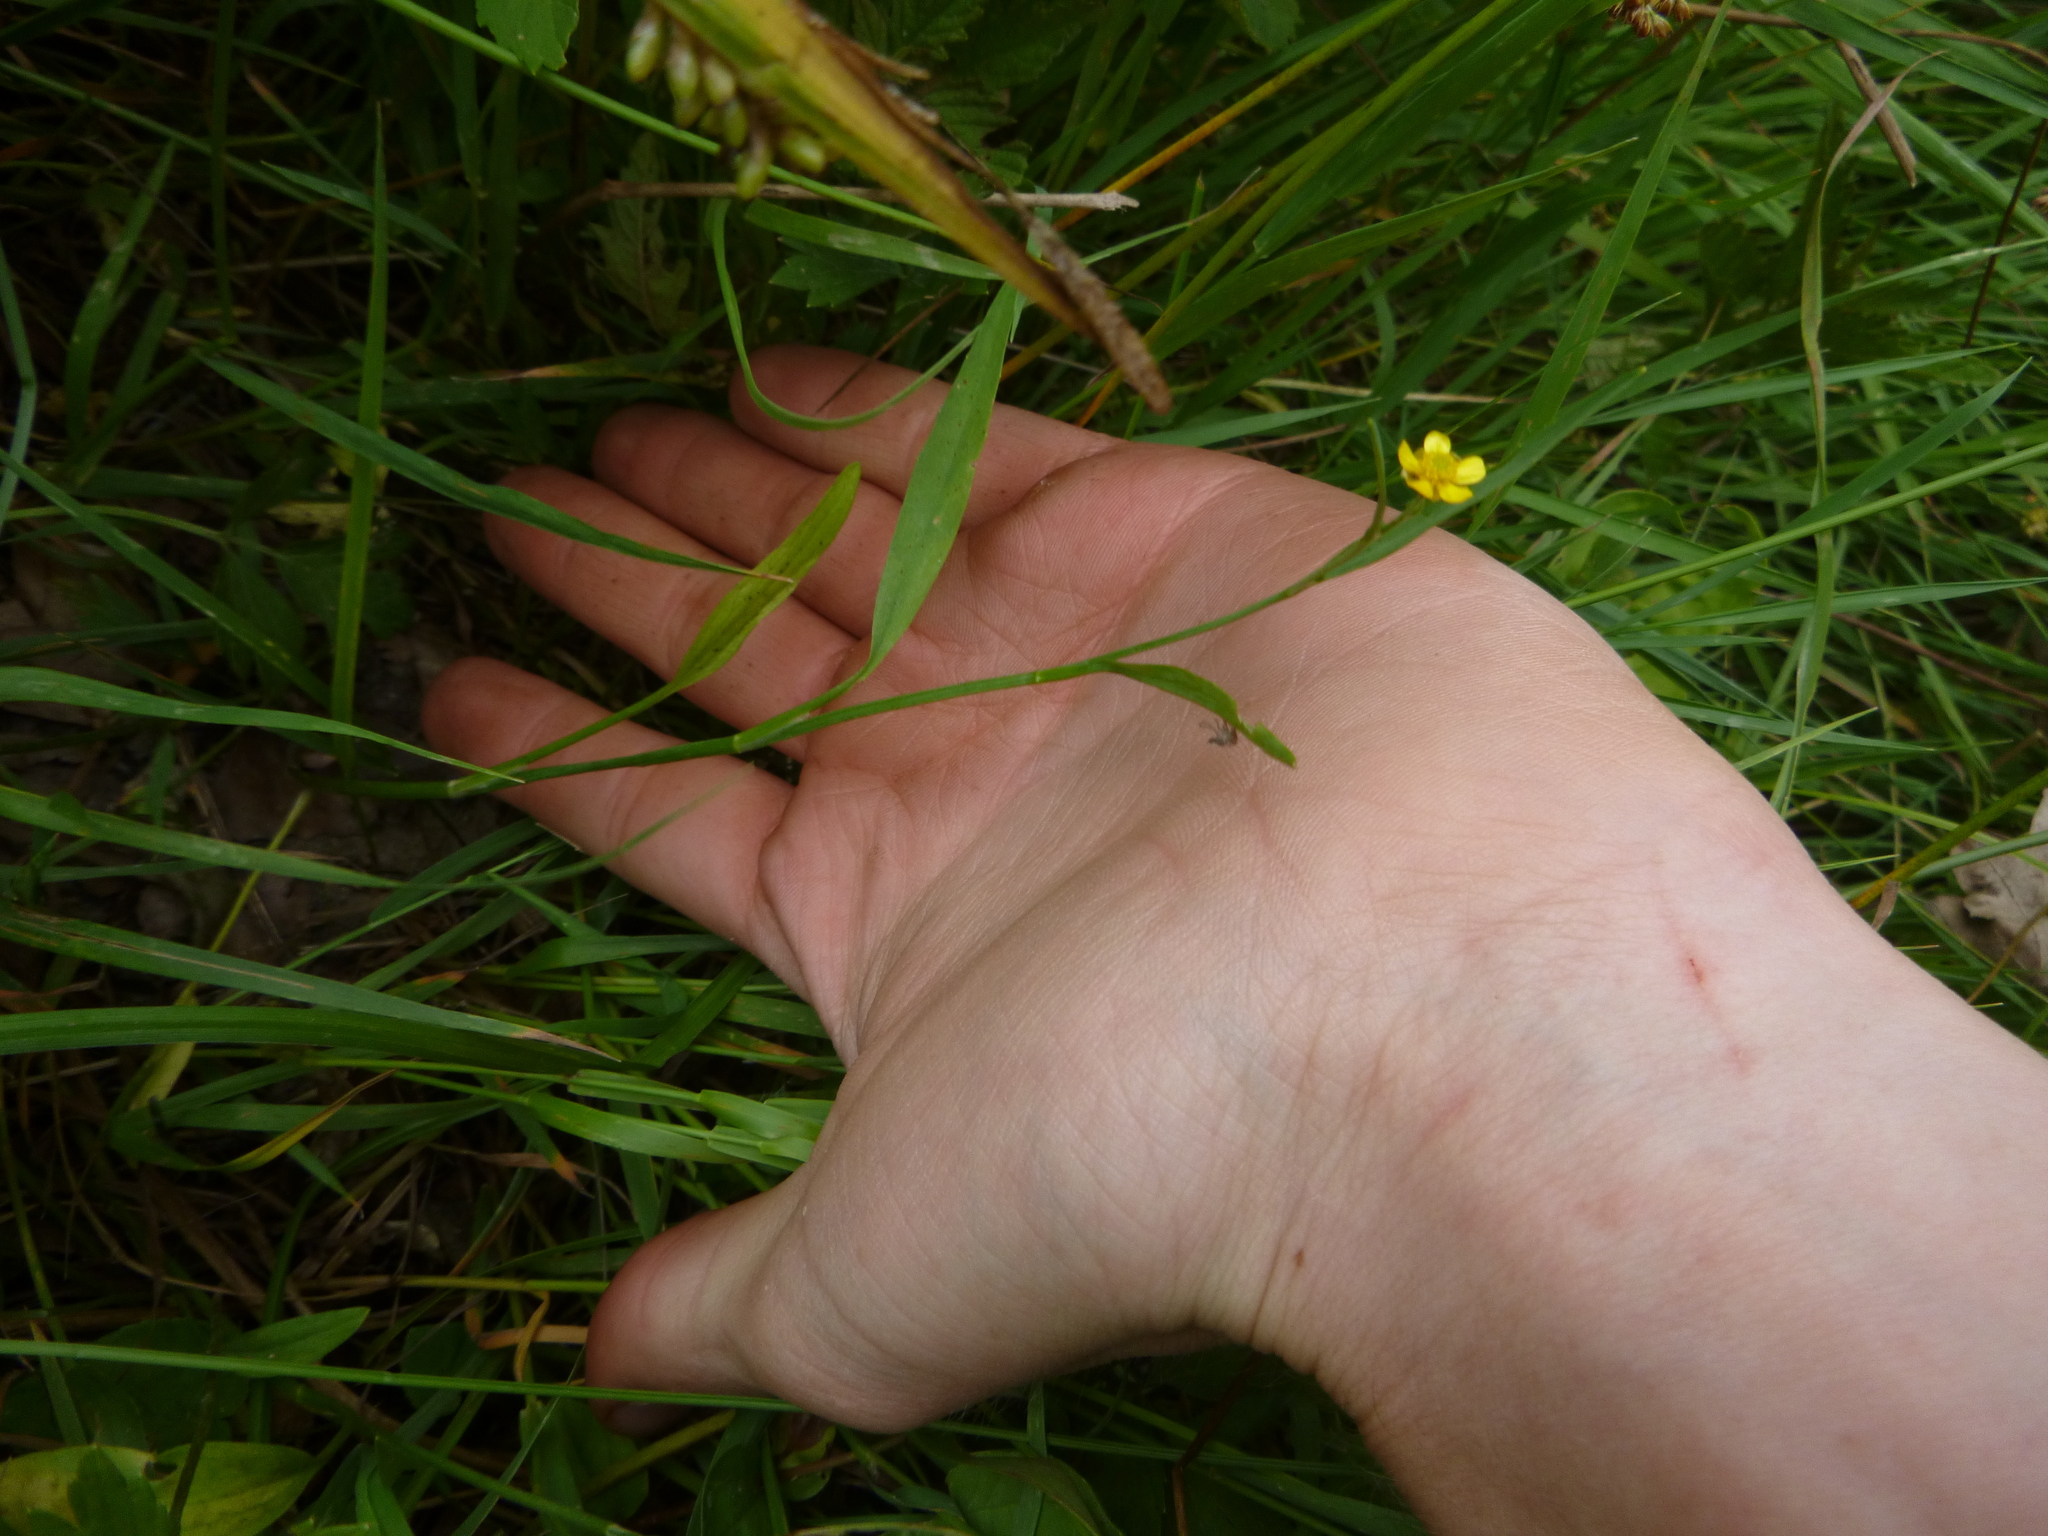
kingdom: Plantae
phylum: Tracheophyta
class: Magnoliopsida
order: Ranunculales
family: Ranunculaceae
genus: Ranunculus
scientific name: Ranunculus flammula
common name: Lesser spearwort
